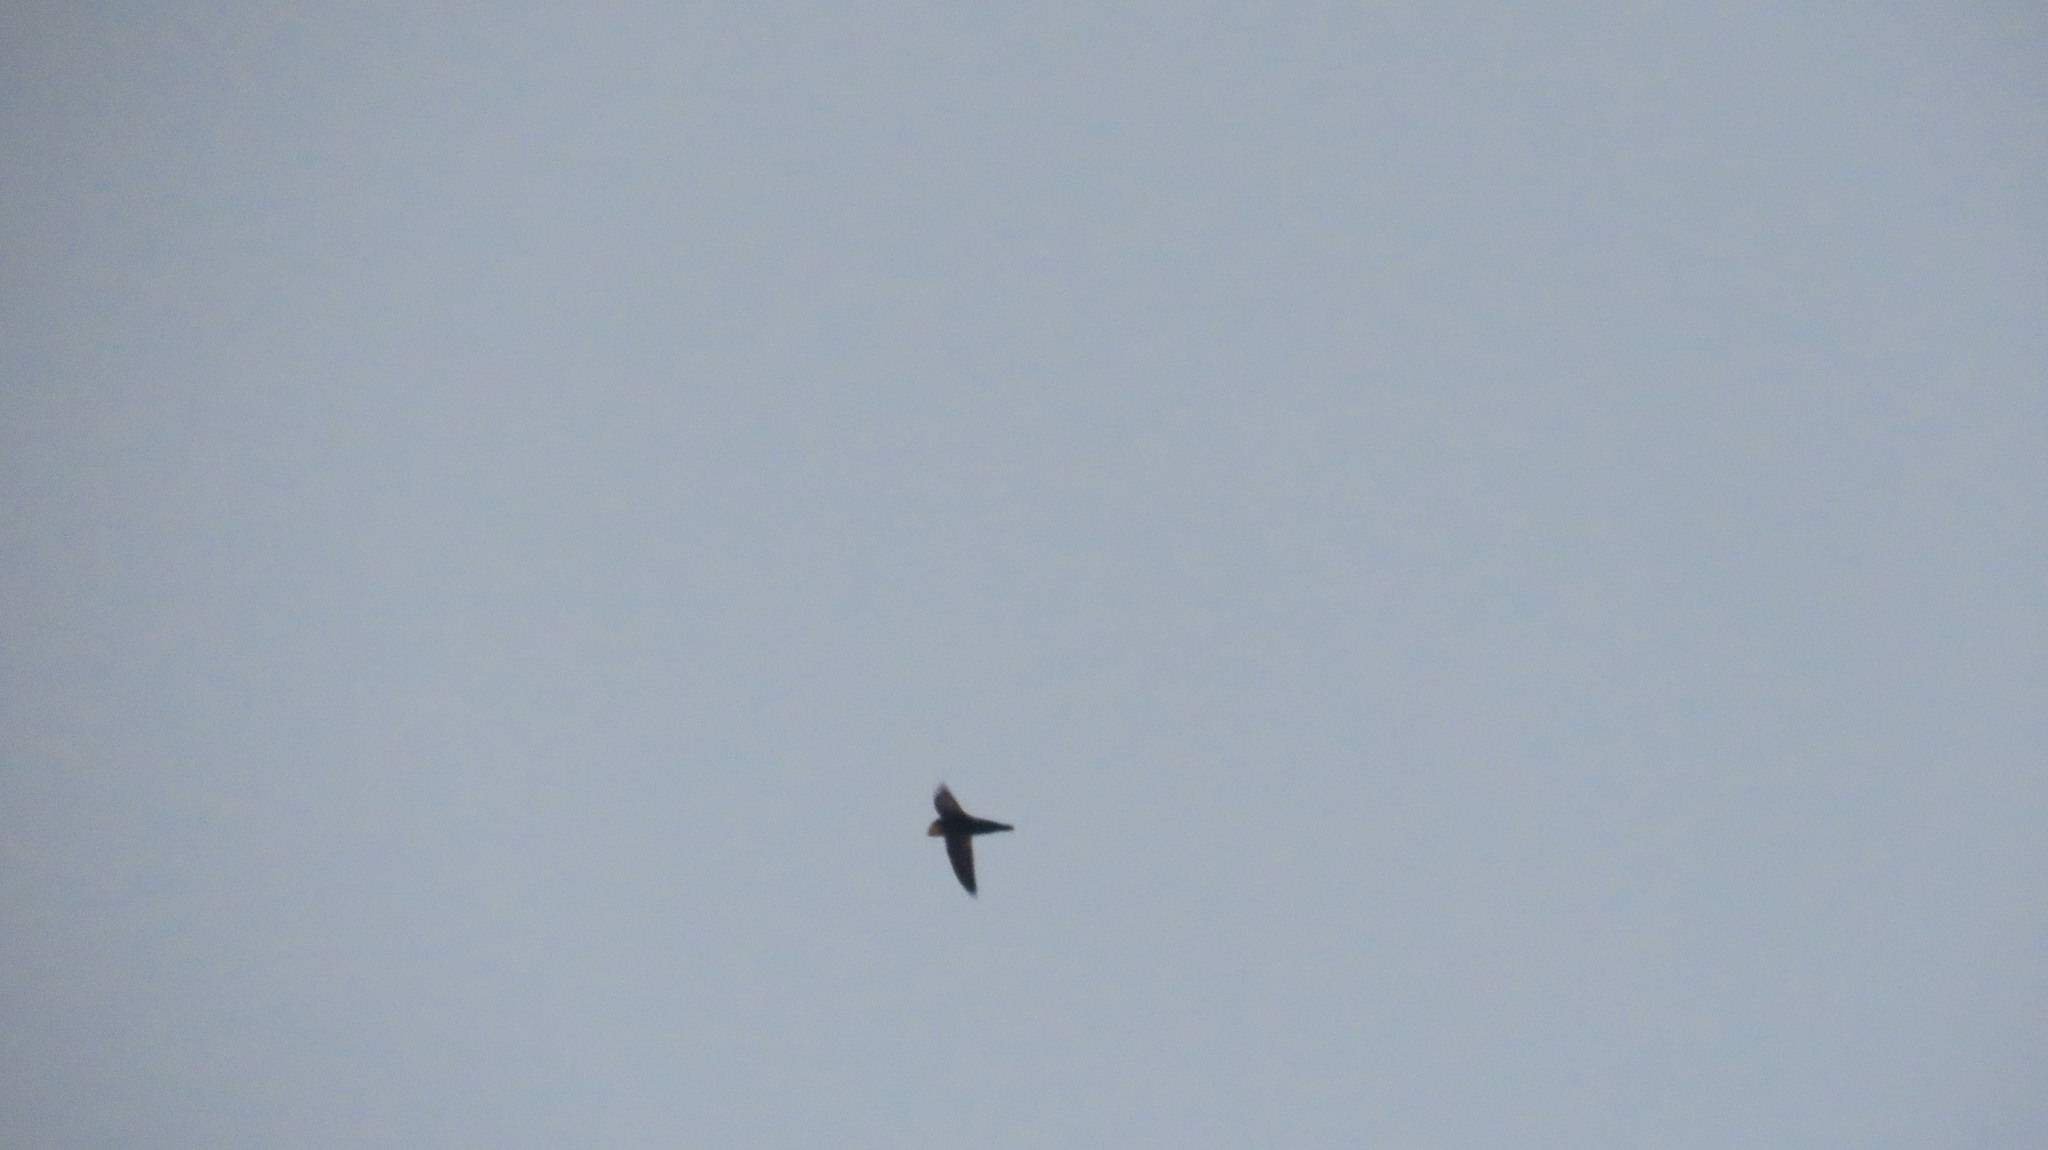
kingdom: Animalia
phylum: Chordata
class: Aves
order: Apodiformes
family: Apodidae
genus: Apus
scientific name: Apus affinis
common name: Little swift
